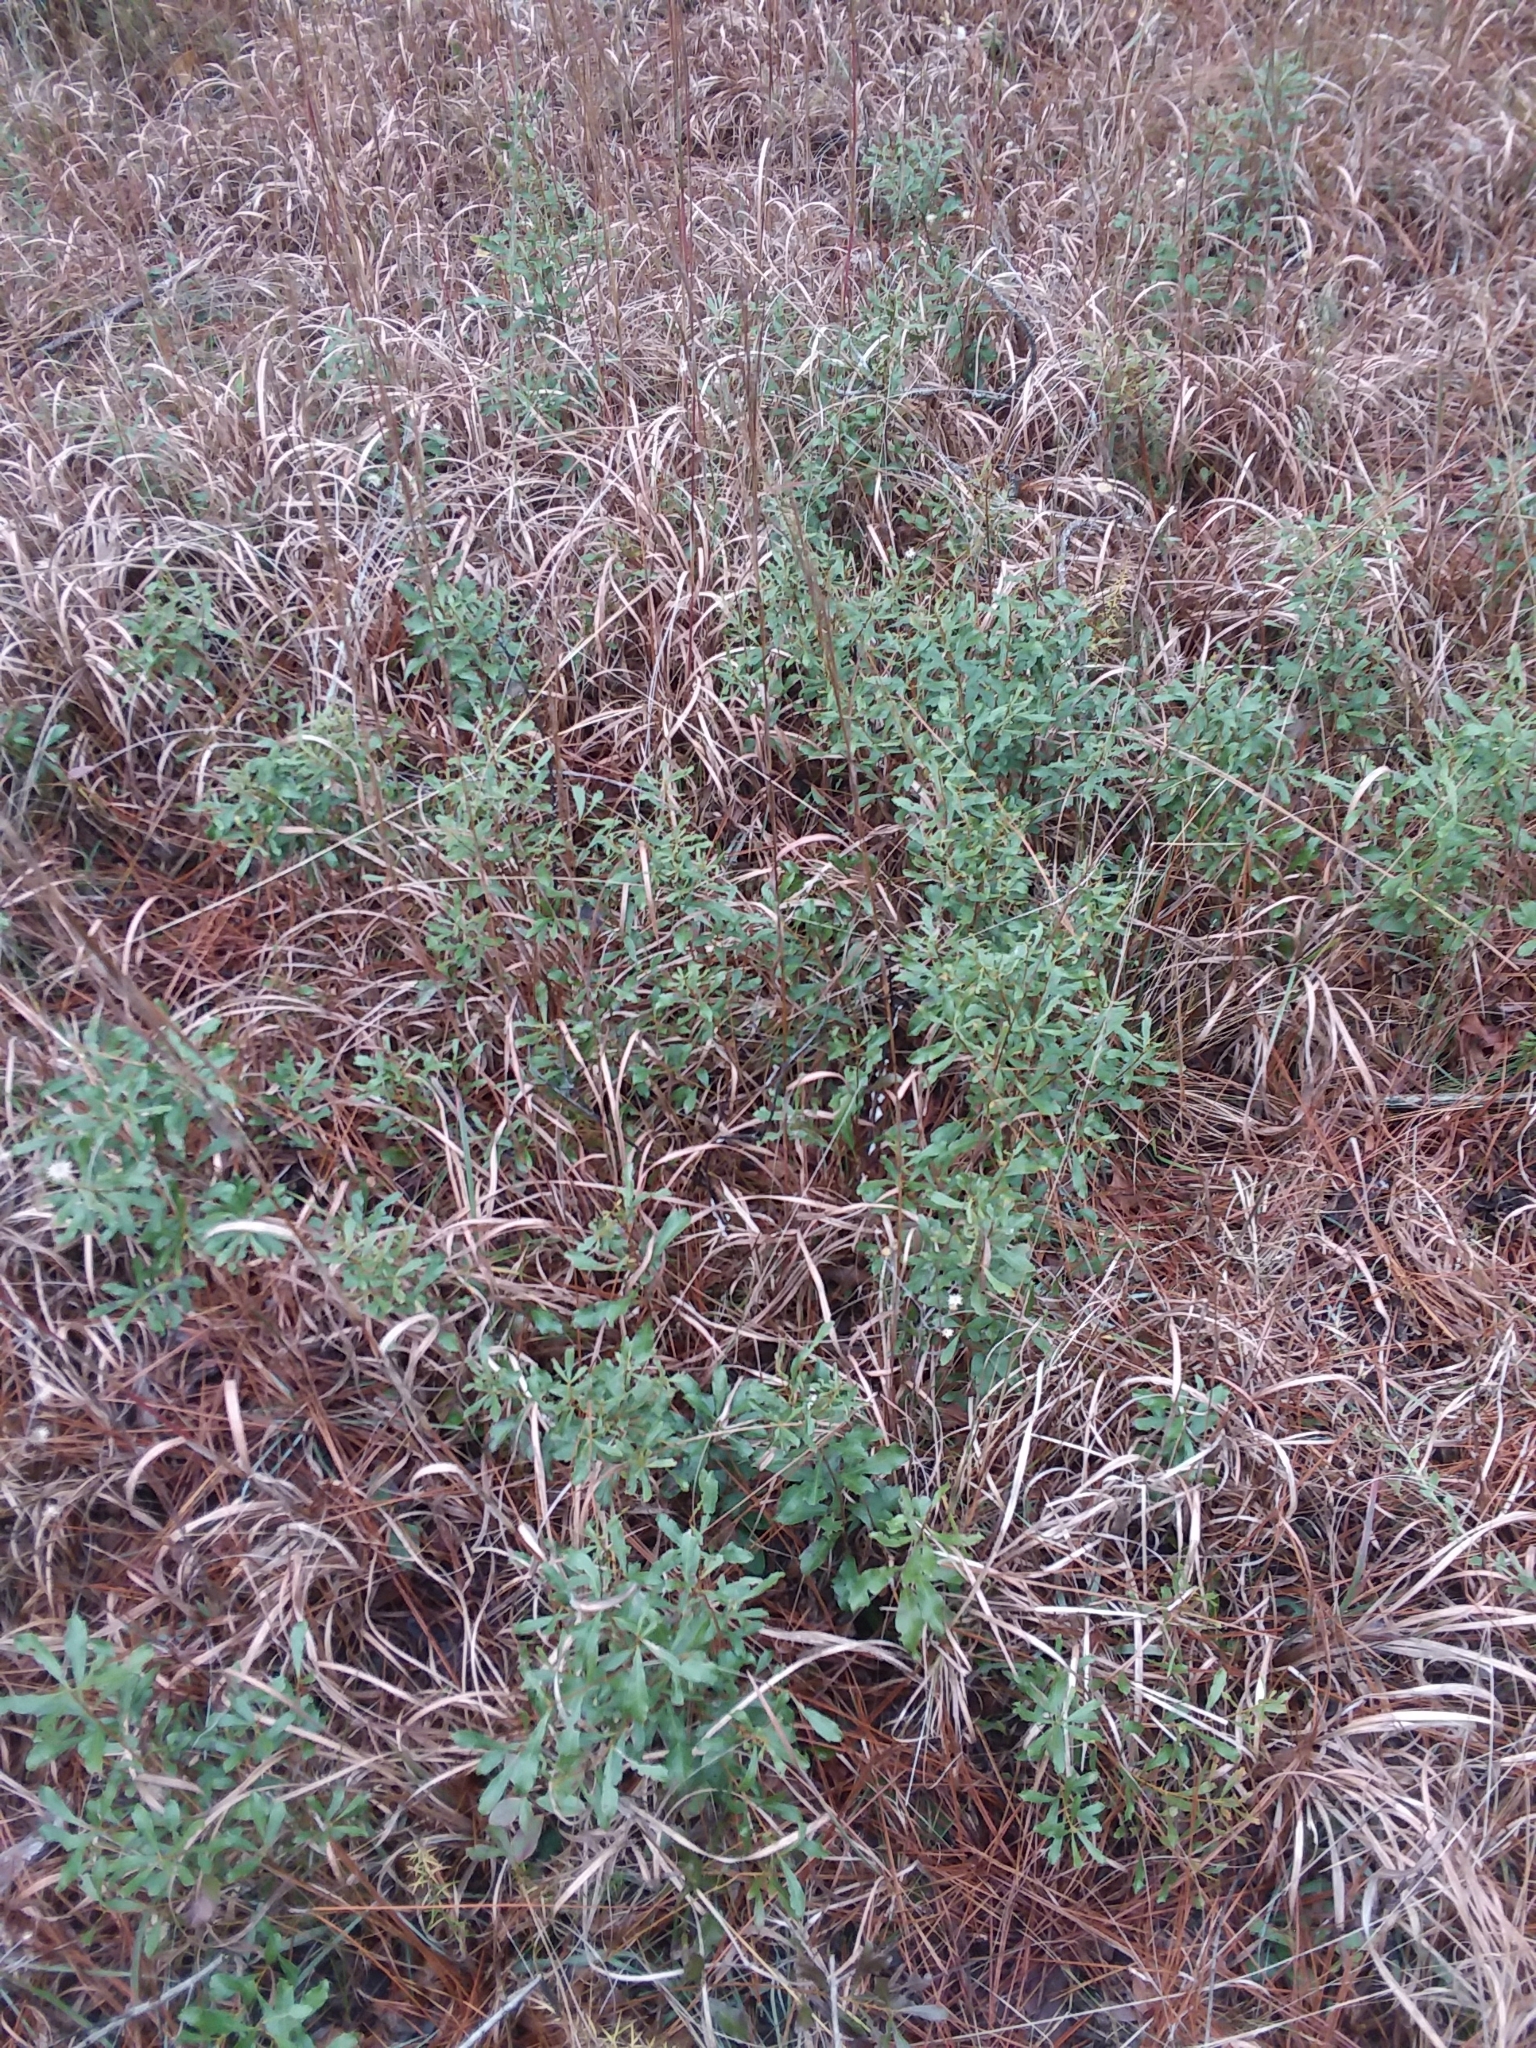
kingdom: Plantae
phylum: Tracheophyta
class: Magnoliopsida
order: Fagales
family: Myricaceae
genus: Morella
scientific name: Morella cerifera
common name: Wax myrtle
